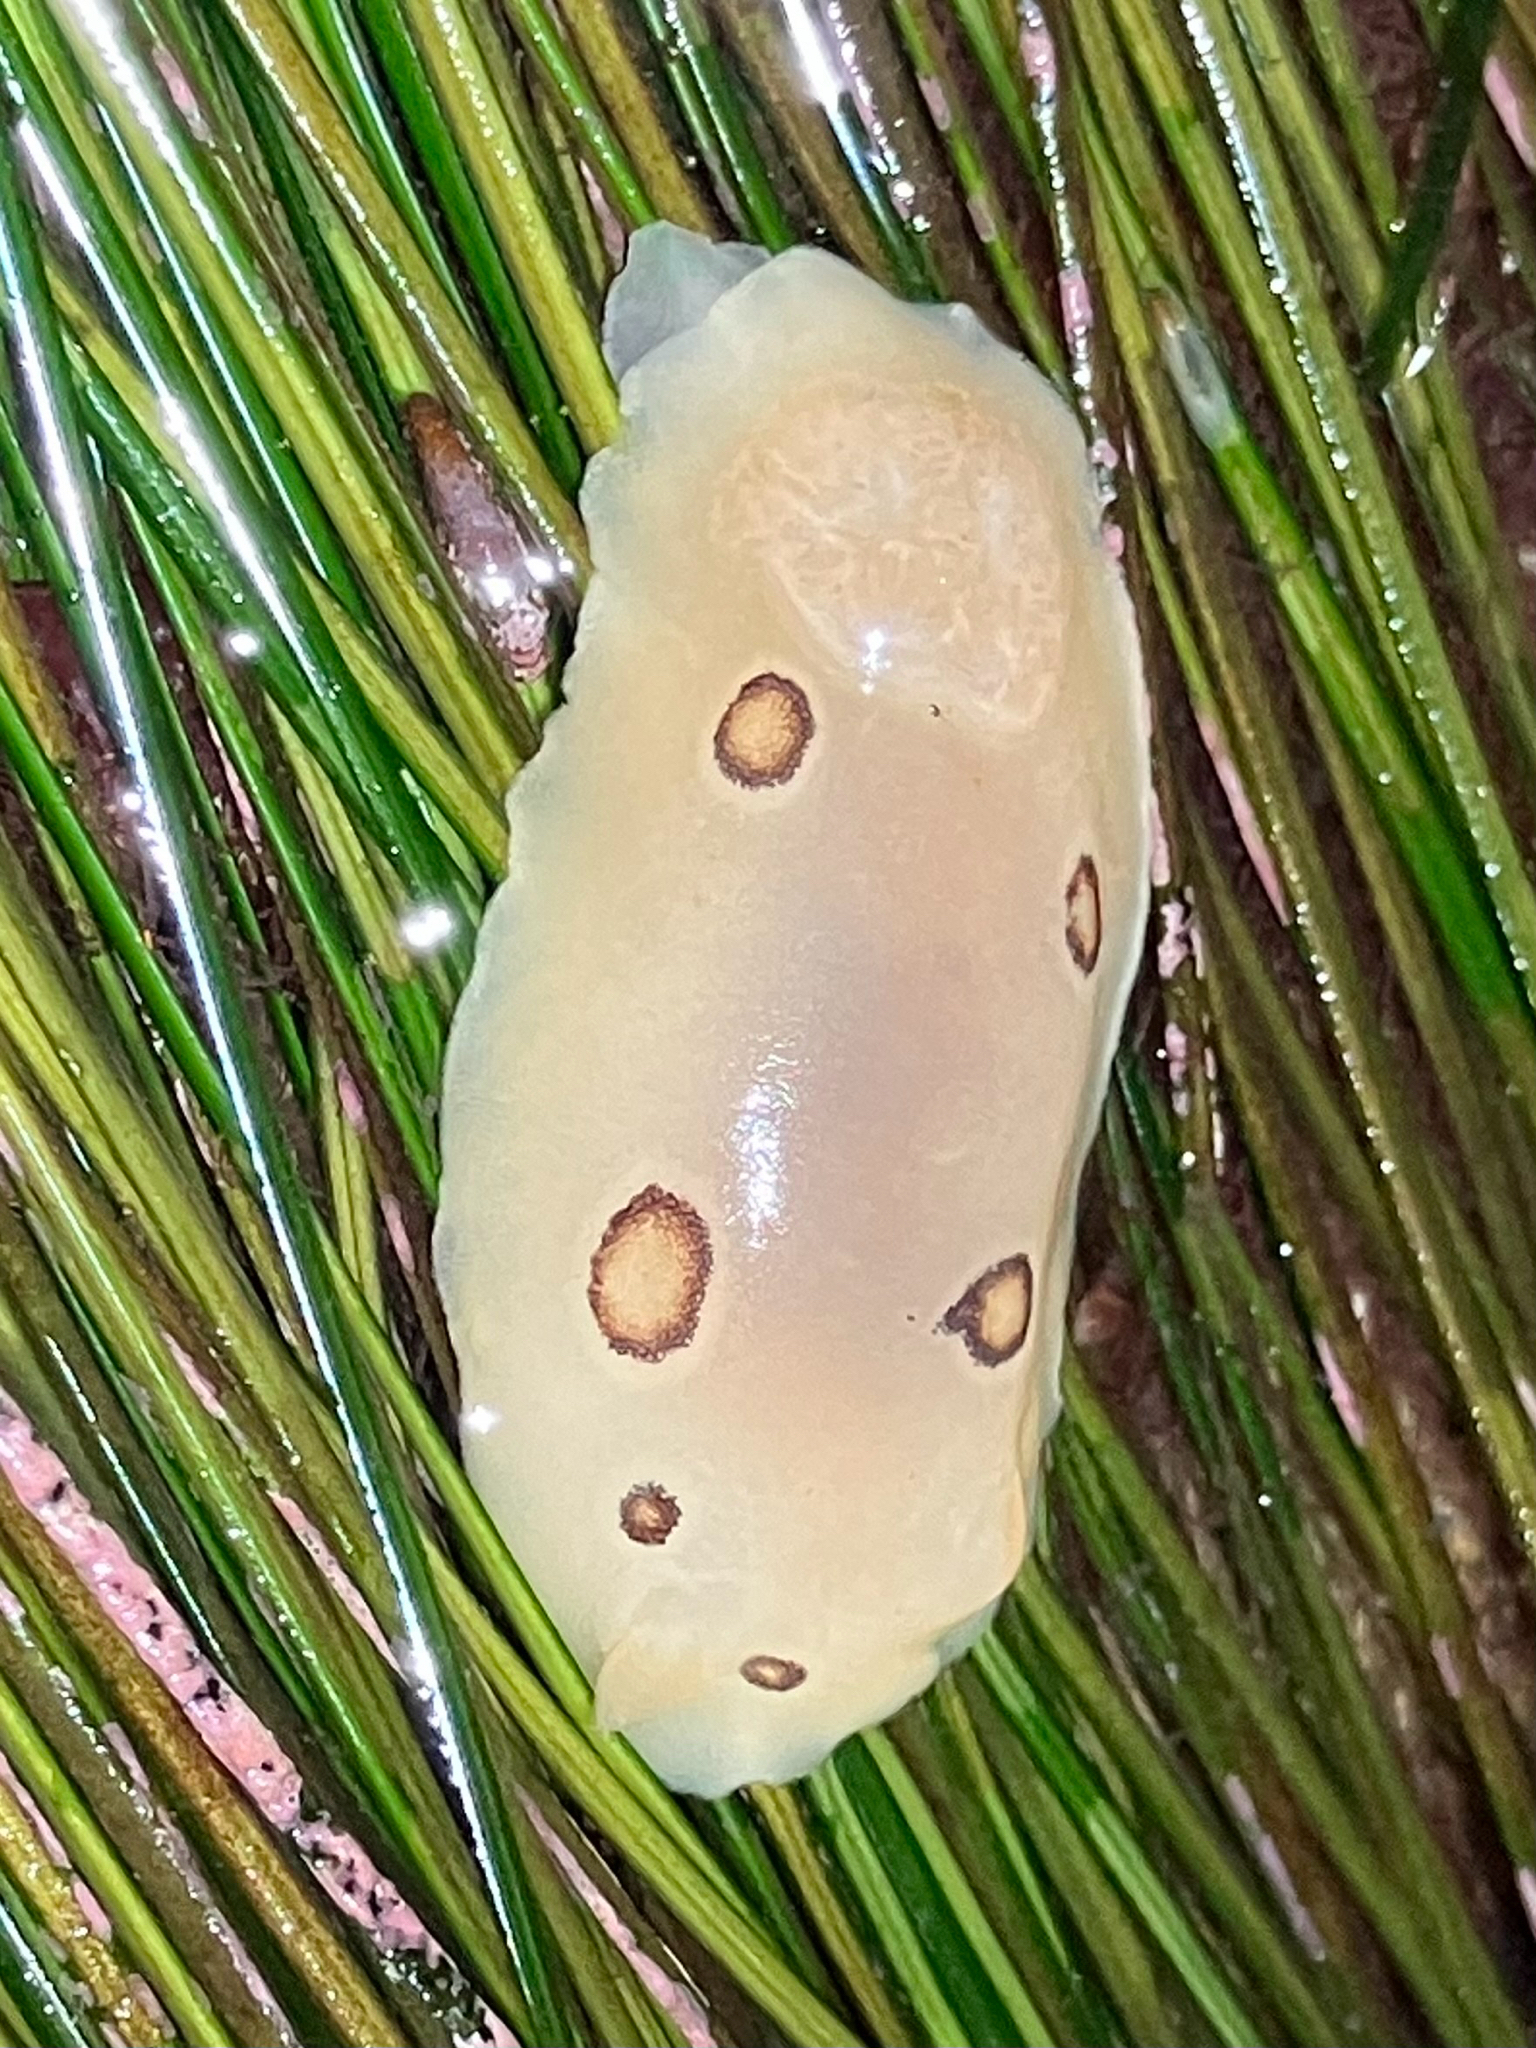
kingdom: Animalia
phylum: Mollusca
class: Gastropoda
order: Nudibranchia
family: Discodorididae
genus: Diaulula
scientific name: Diaulula sandiegensis
